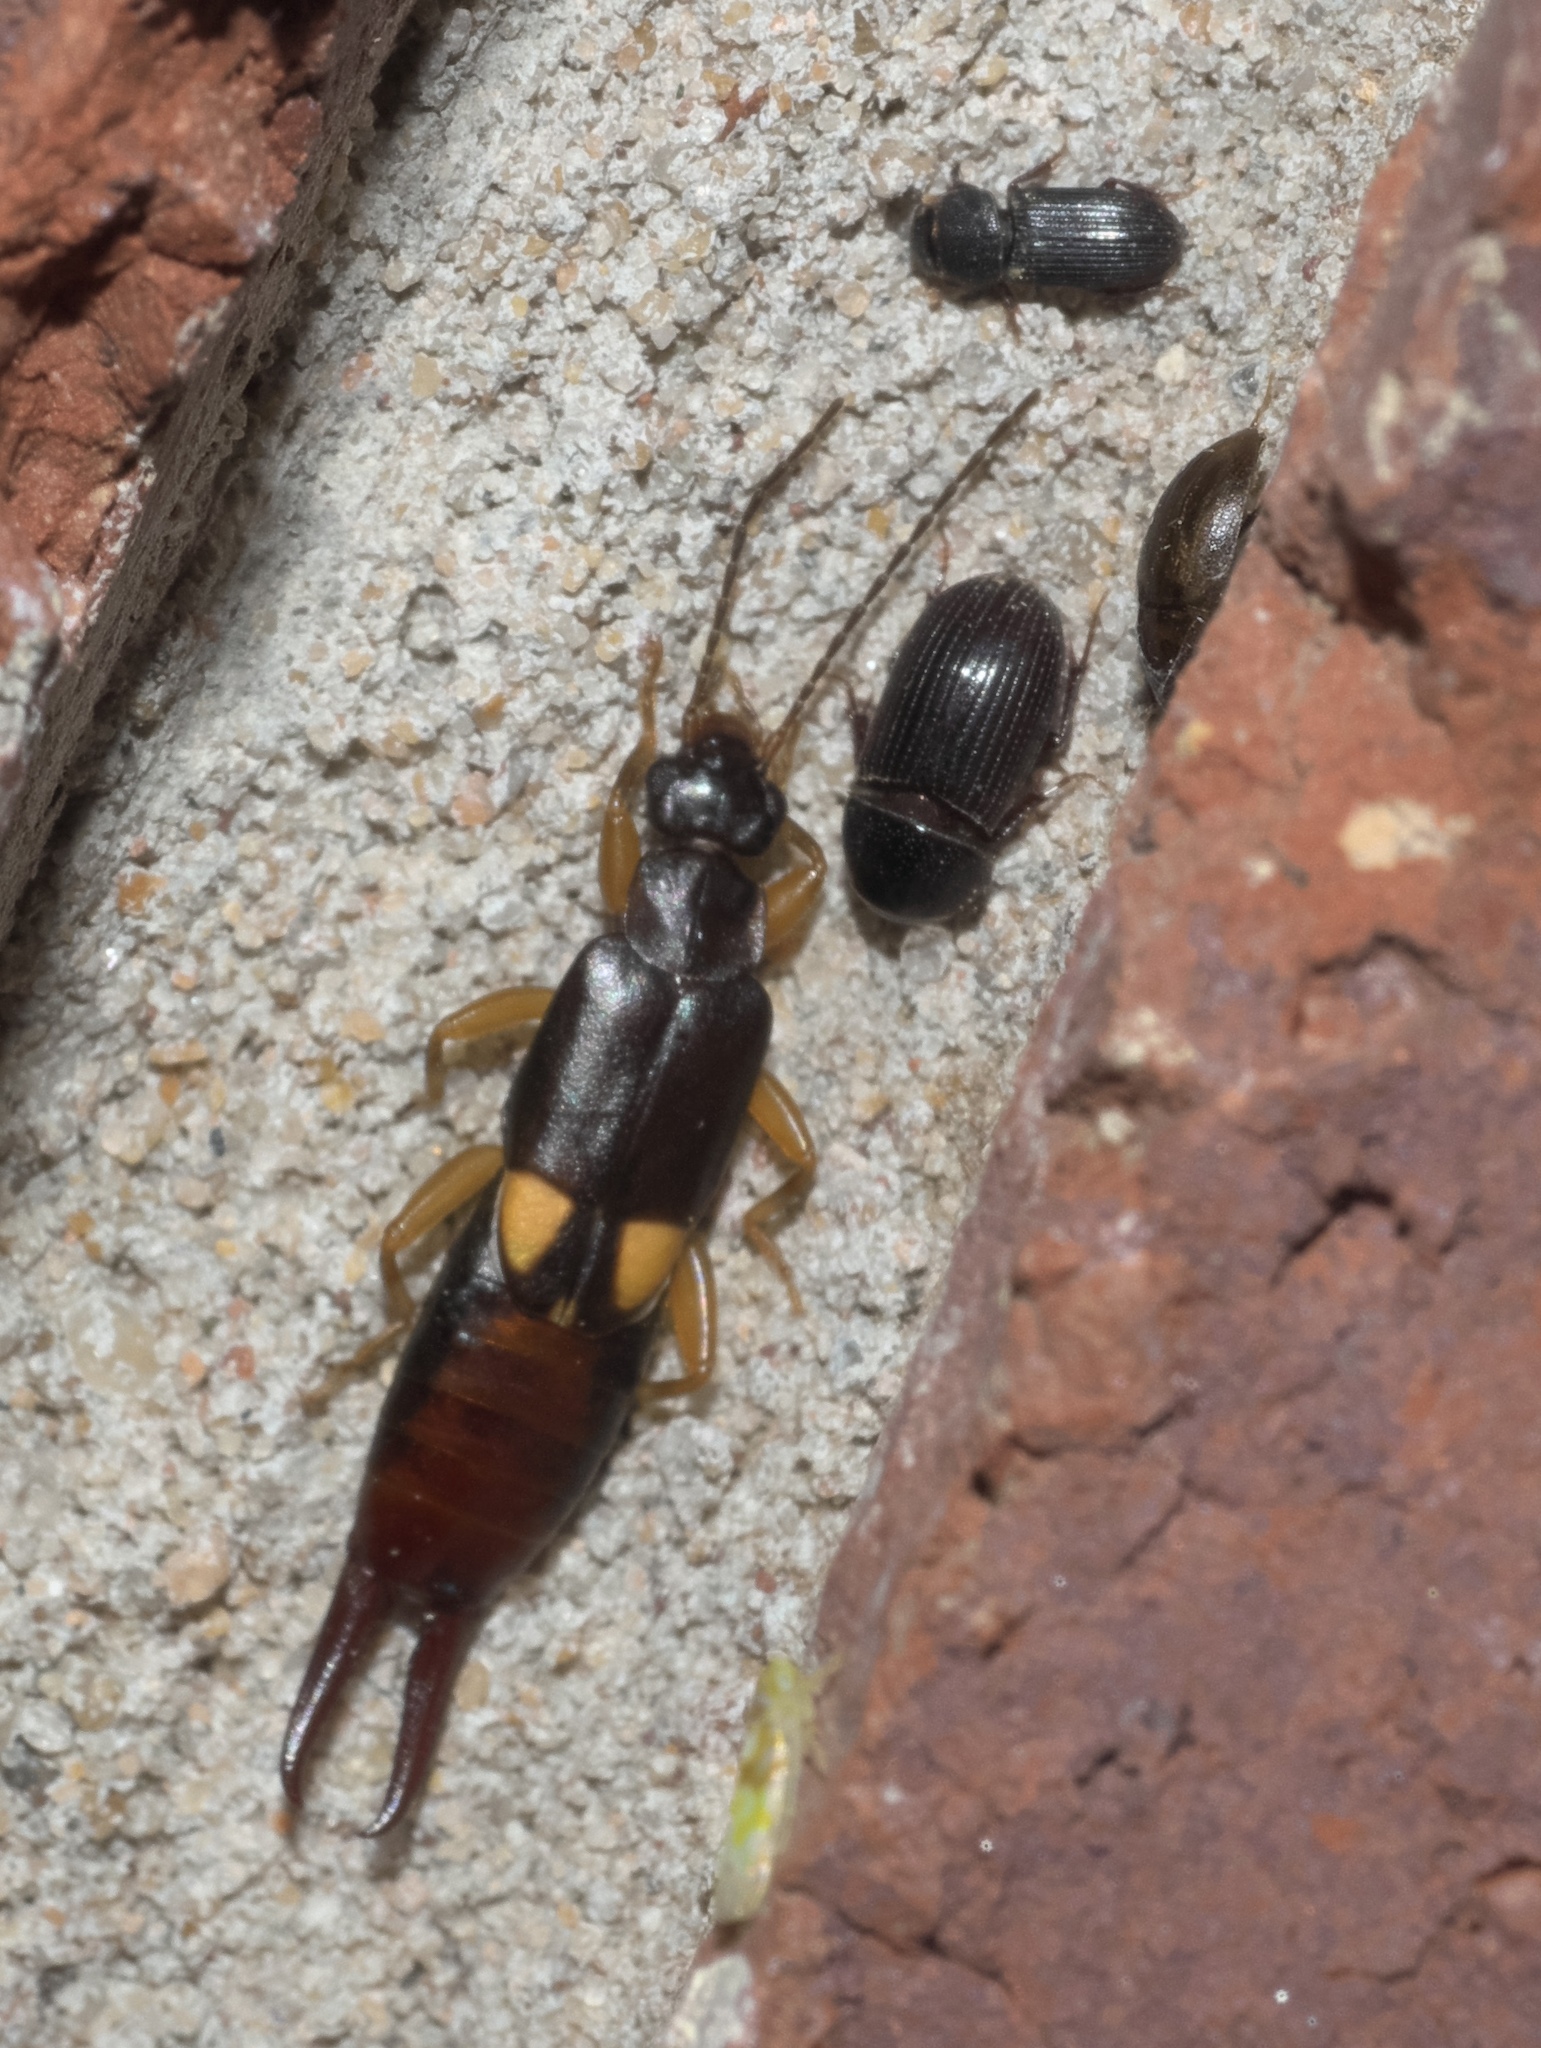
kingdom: Animalia
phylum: Arthropoda
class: Insecta
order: Dermaptera
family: Spongiphoridae
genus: Vostox
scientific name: Vostox brunneipennis
